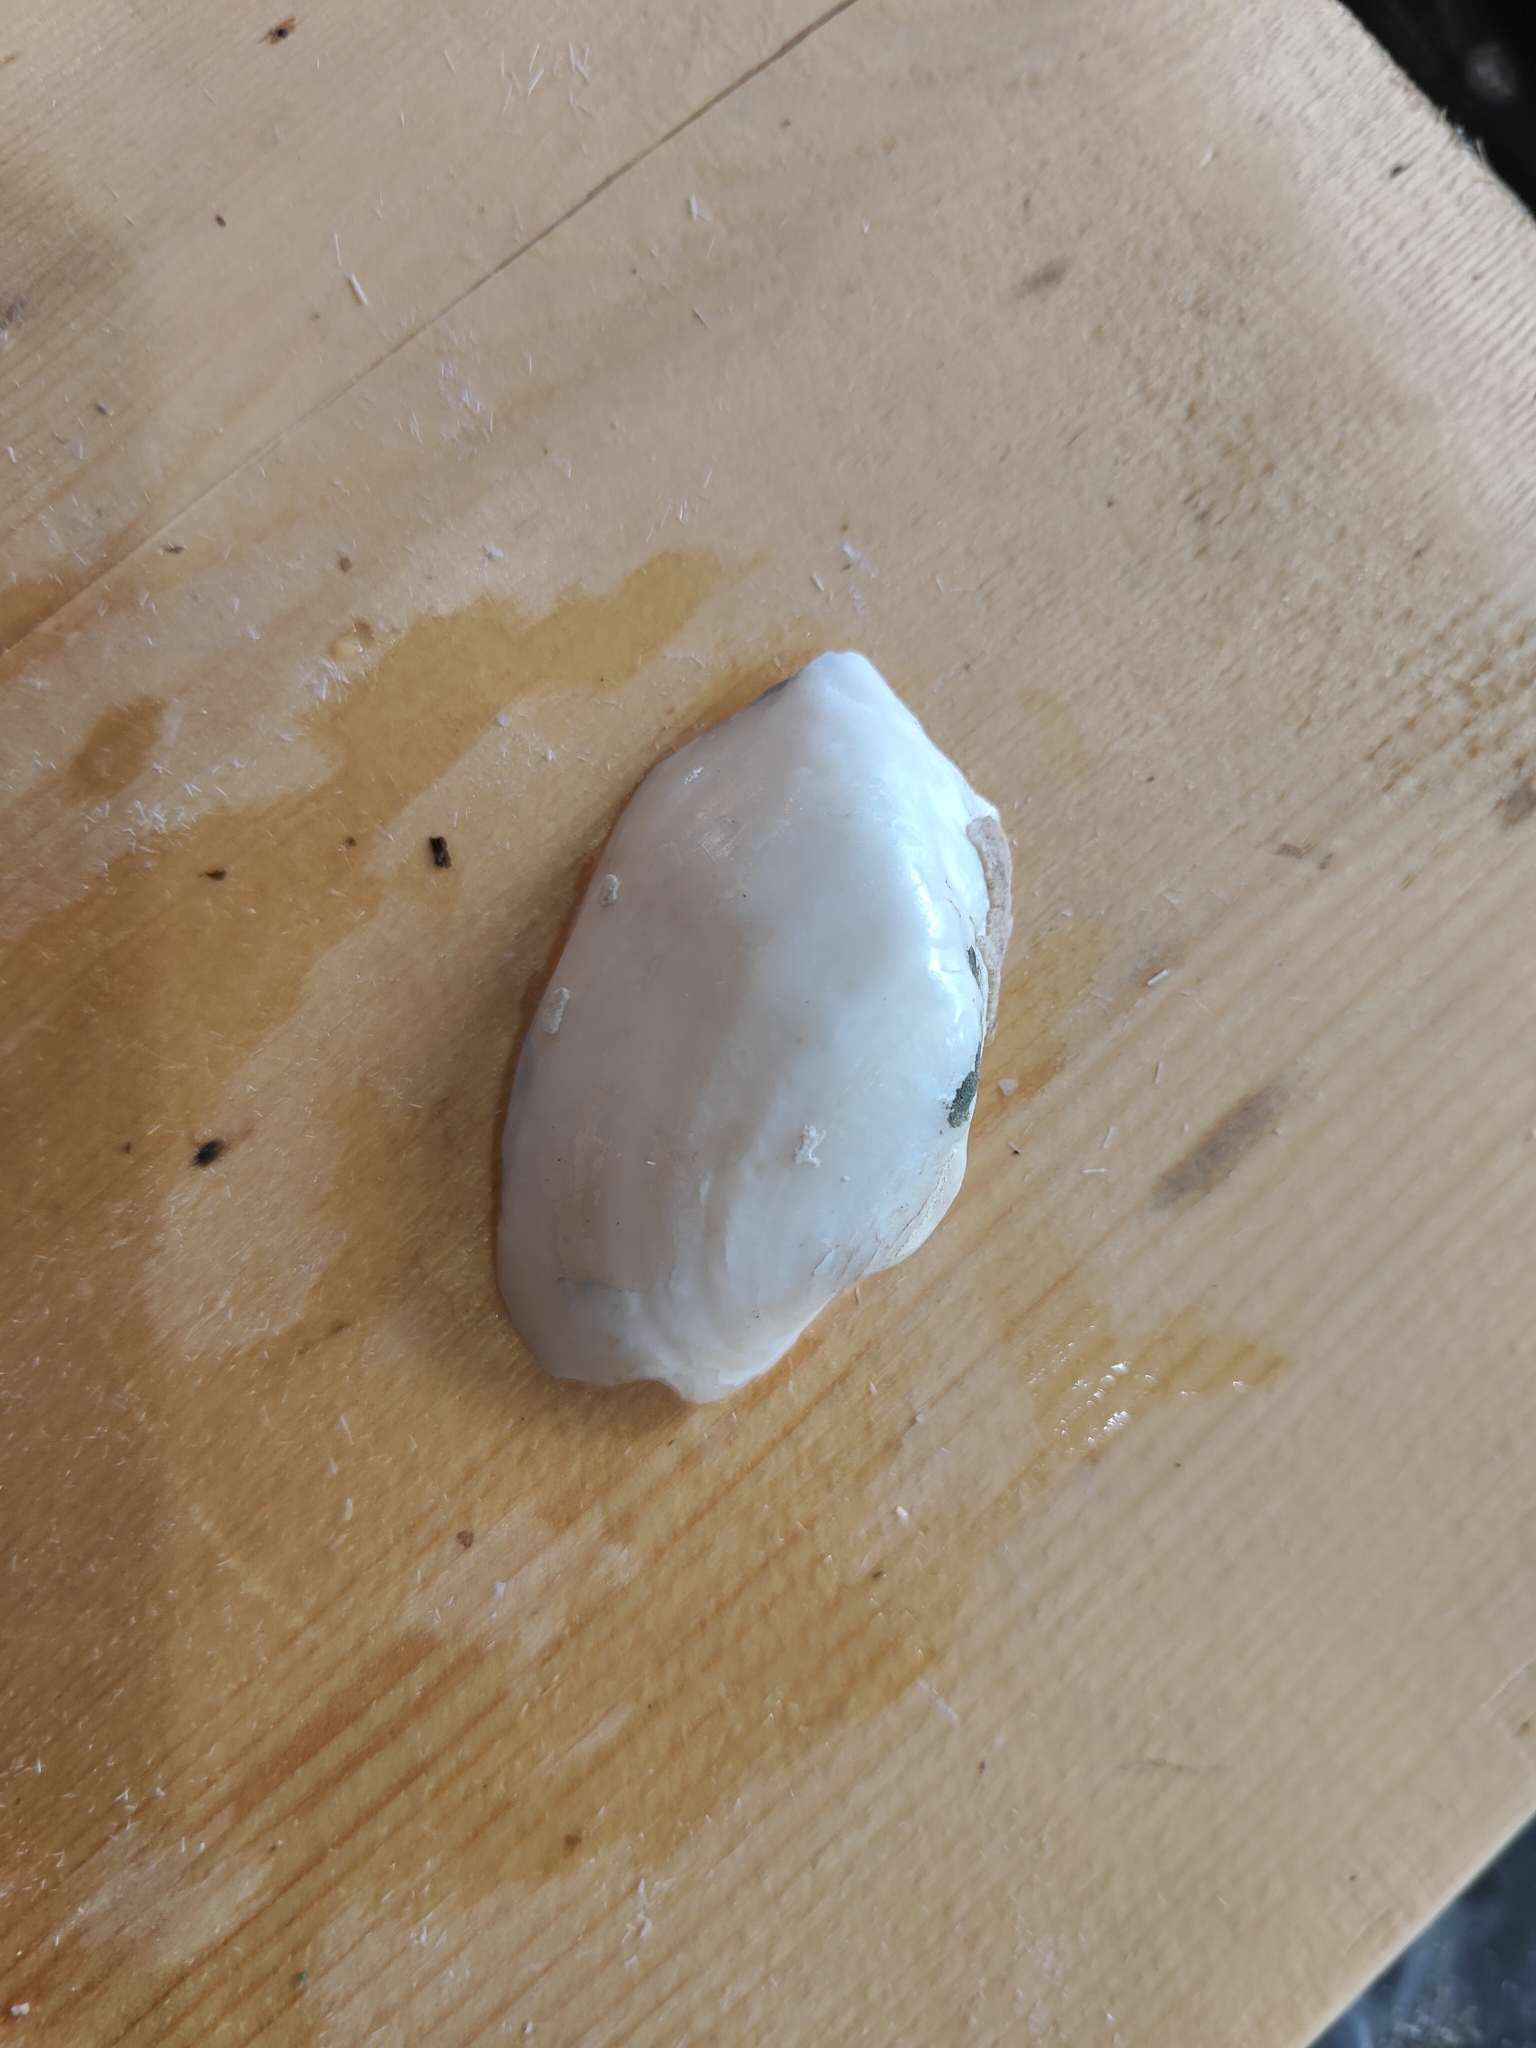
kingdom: Animalia
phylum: Mollusca
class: Bivalvia
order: Unionida
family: Unionidae
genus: Alasmidonta
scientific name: Alasmidonta marginata
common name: Elktoe
